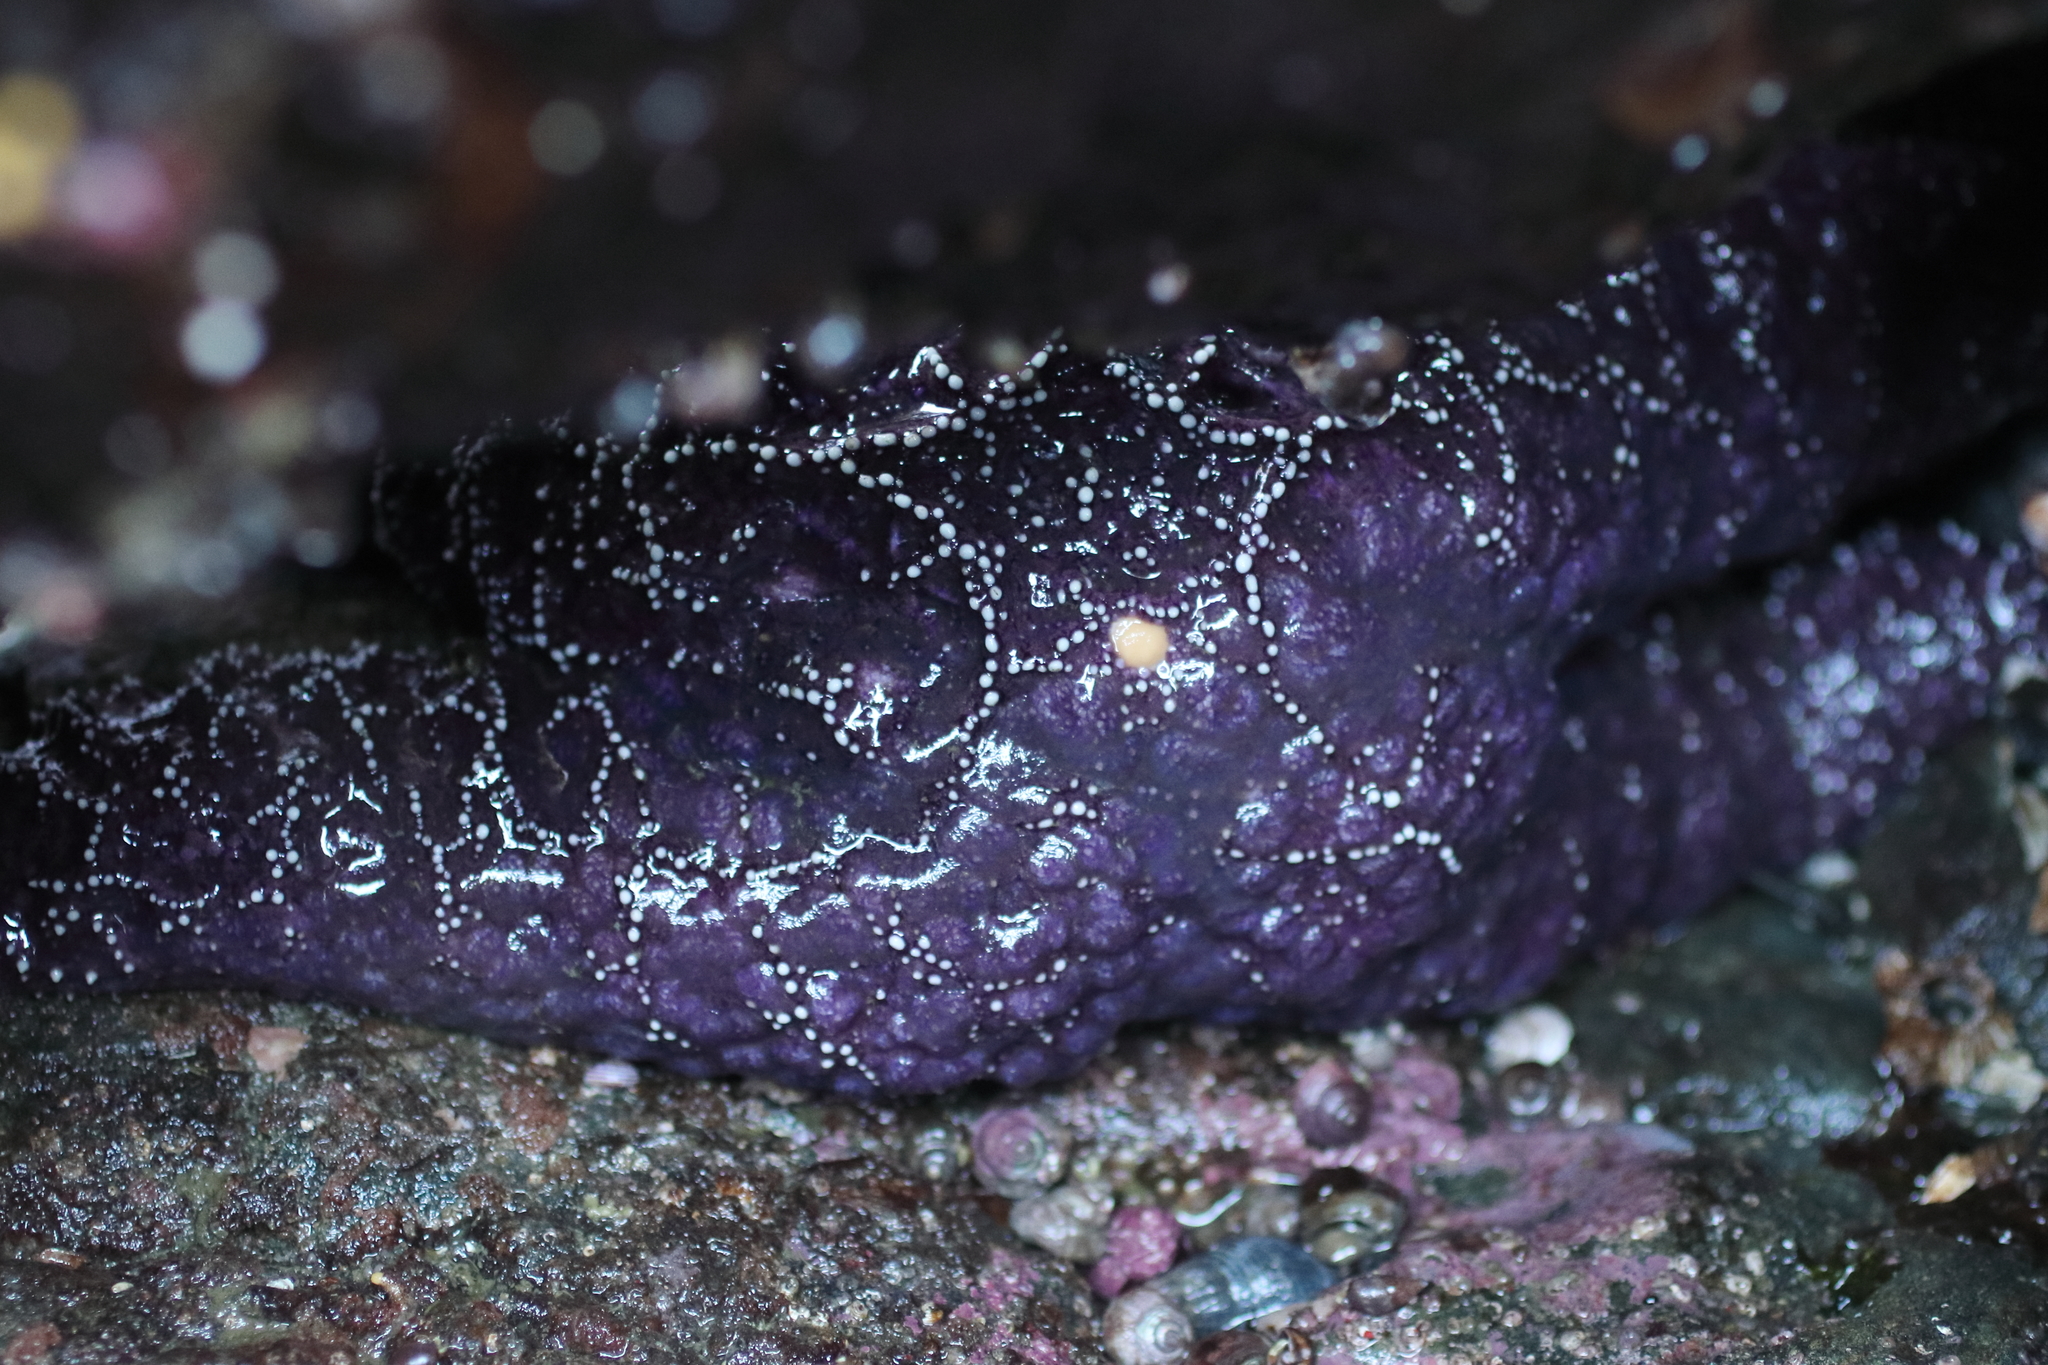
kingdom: Animalia
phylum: Echinodermata
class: Asteroidea
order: Forcipulatida
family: Asteriidae
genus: Pisaster
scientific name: Pisaster ochraceus
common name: Ochre stars
